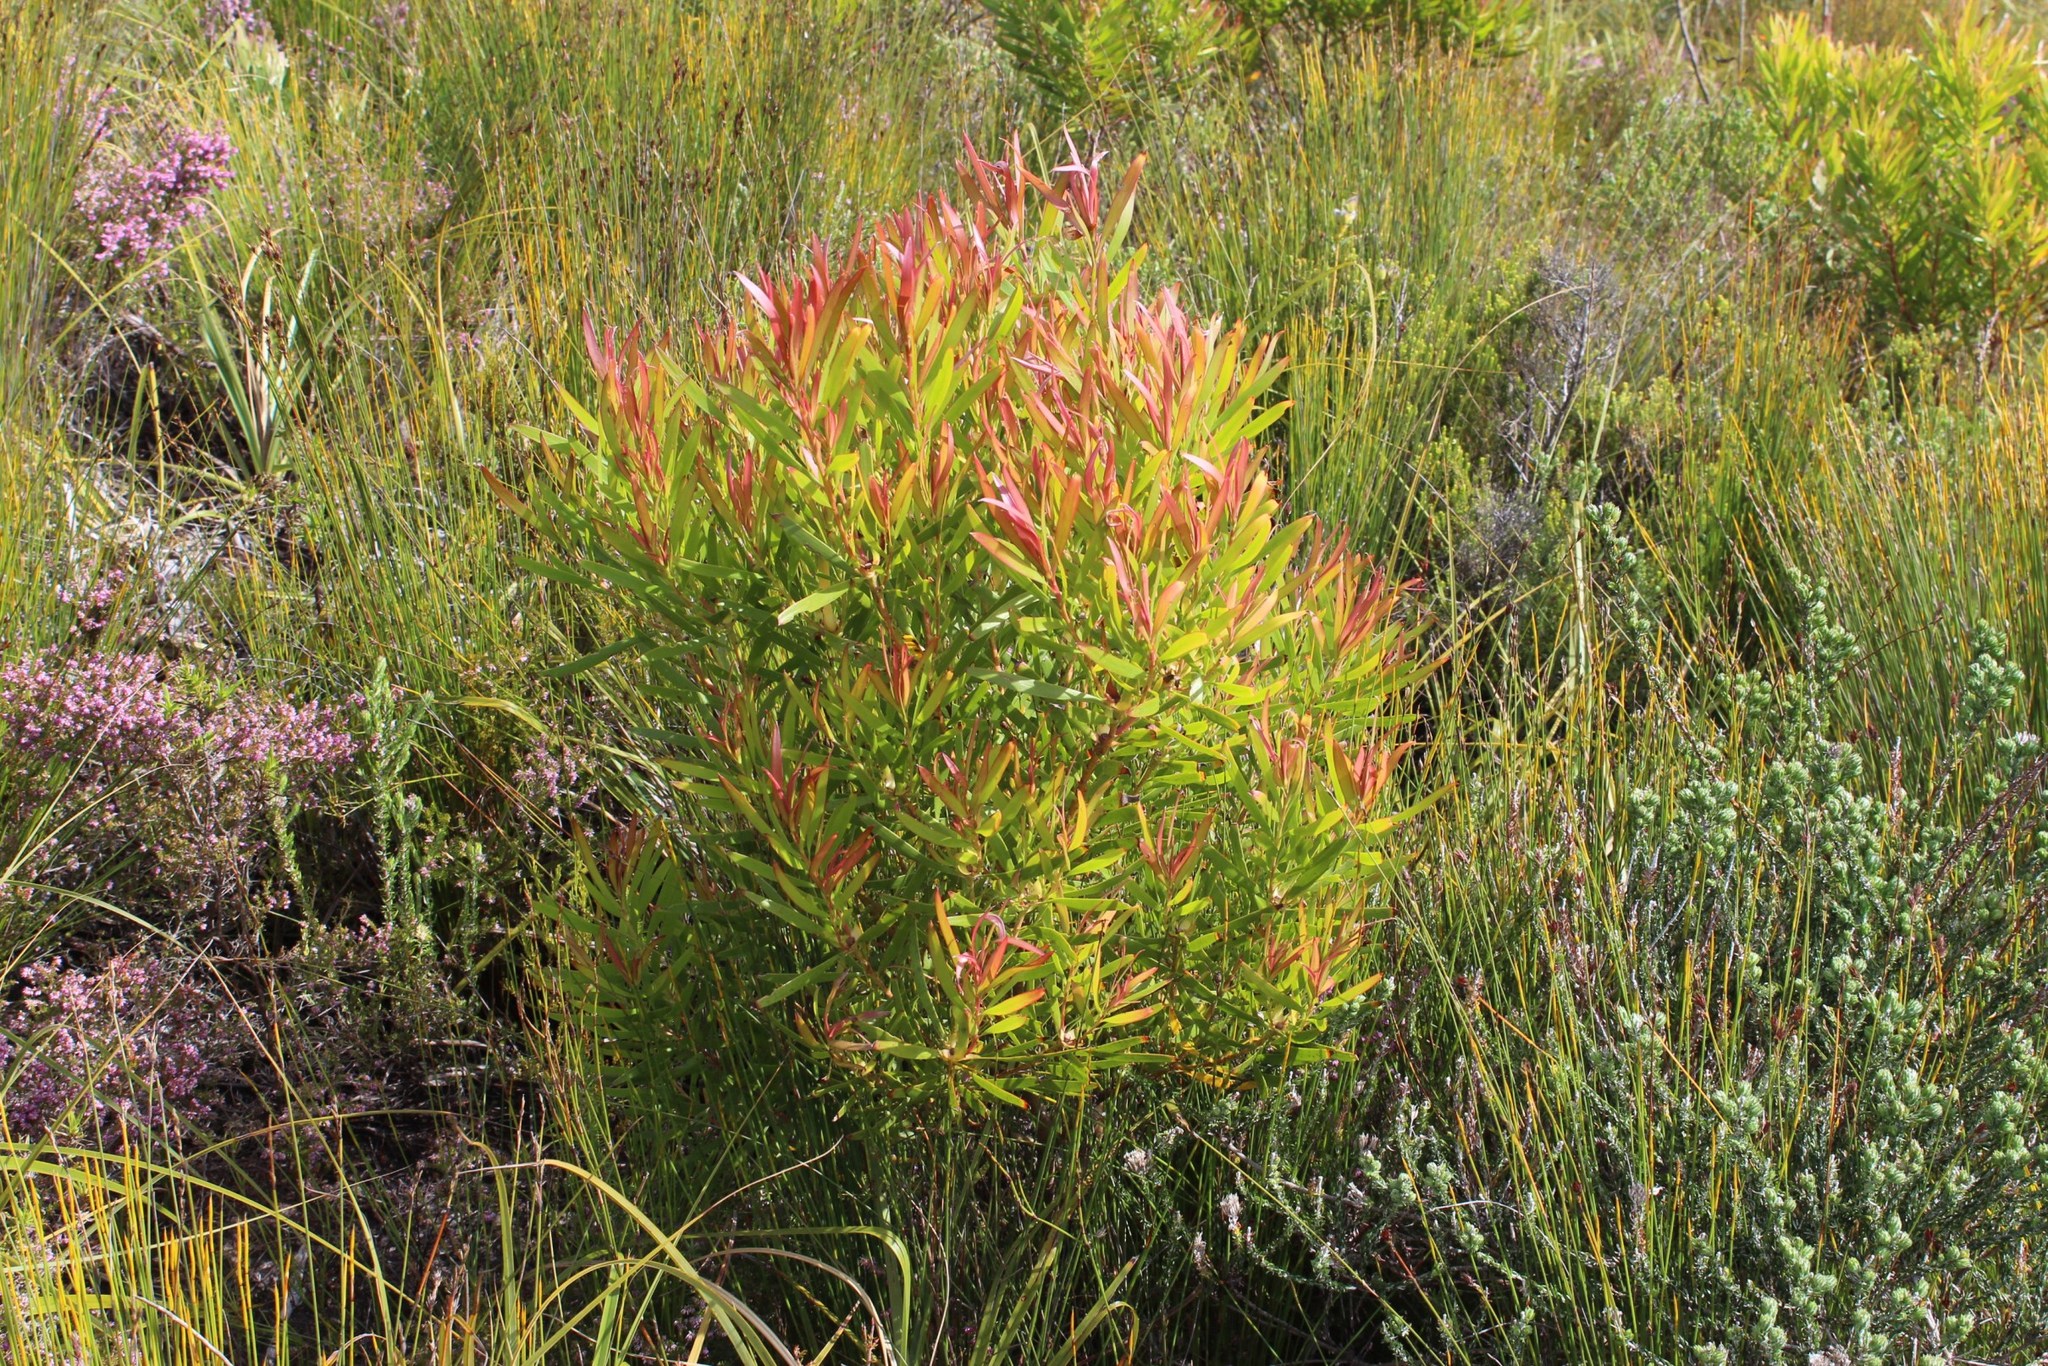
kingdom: Plantae
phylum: Tracheophyta
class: Magnoliopsida
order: Proteales
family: Proteaceae
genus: Leucadendron
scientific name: Leucadendron eucalyptifolium
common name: Gum-leaved conebush
